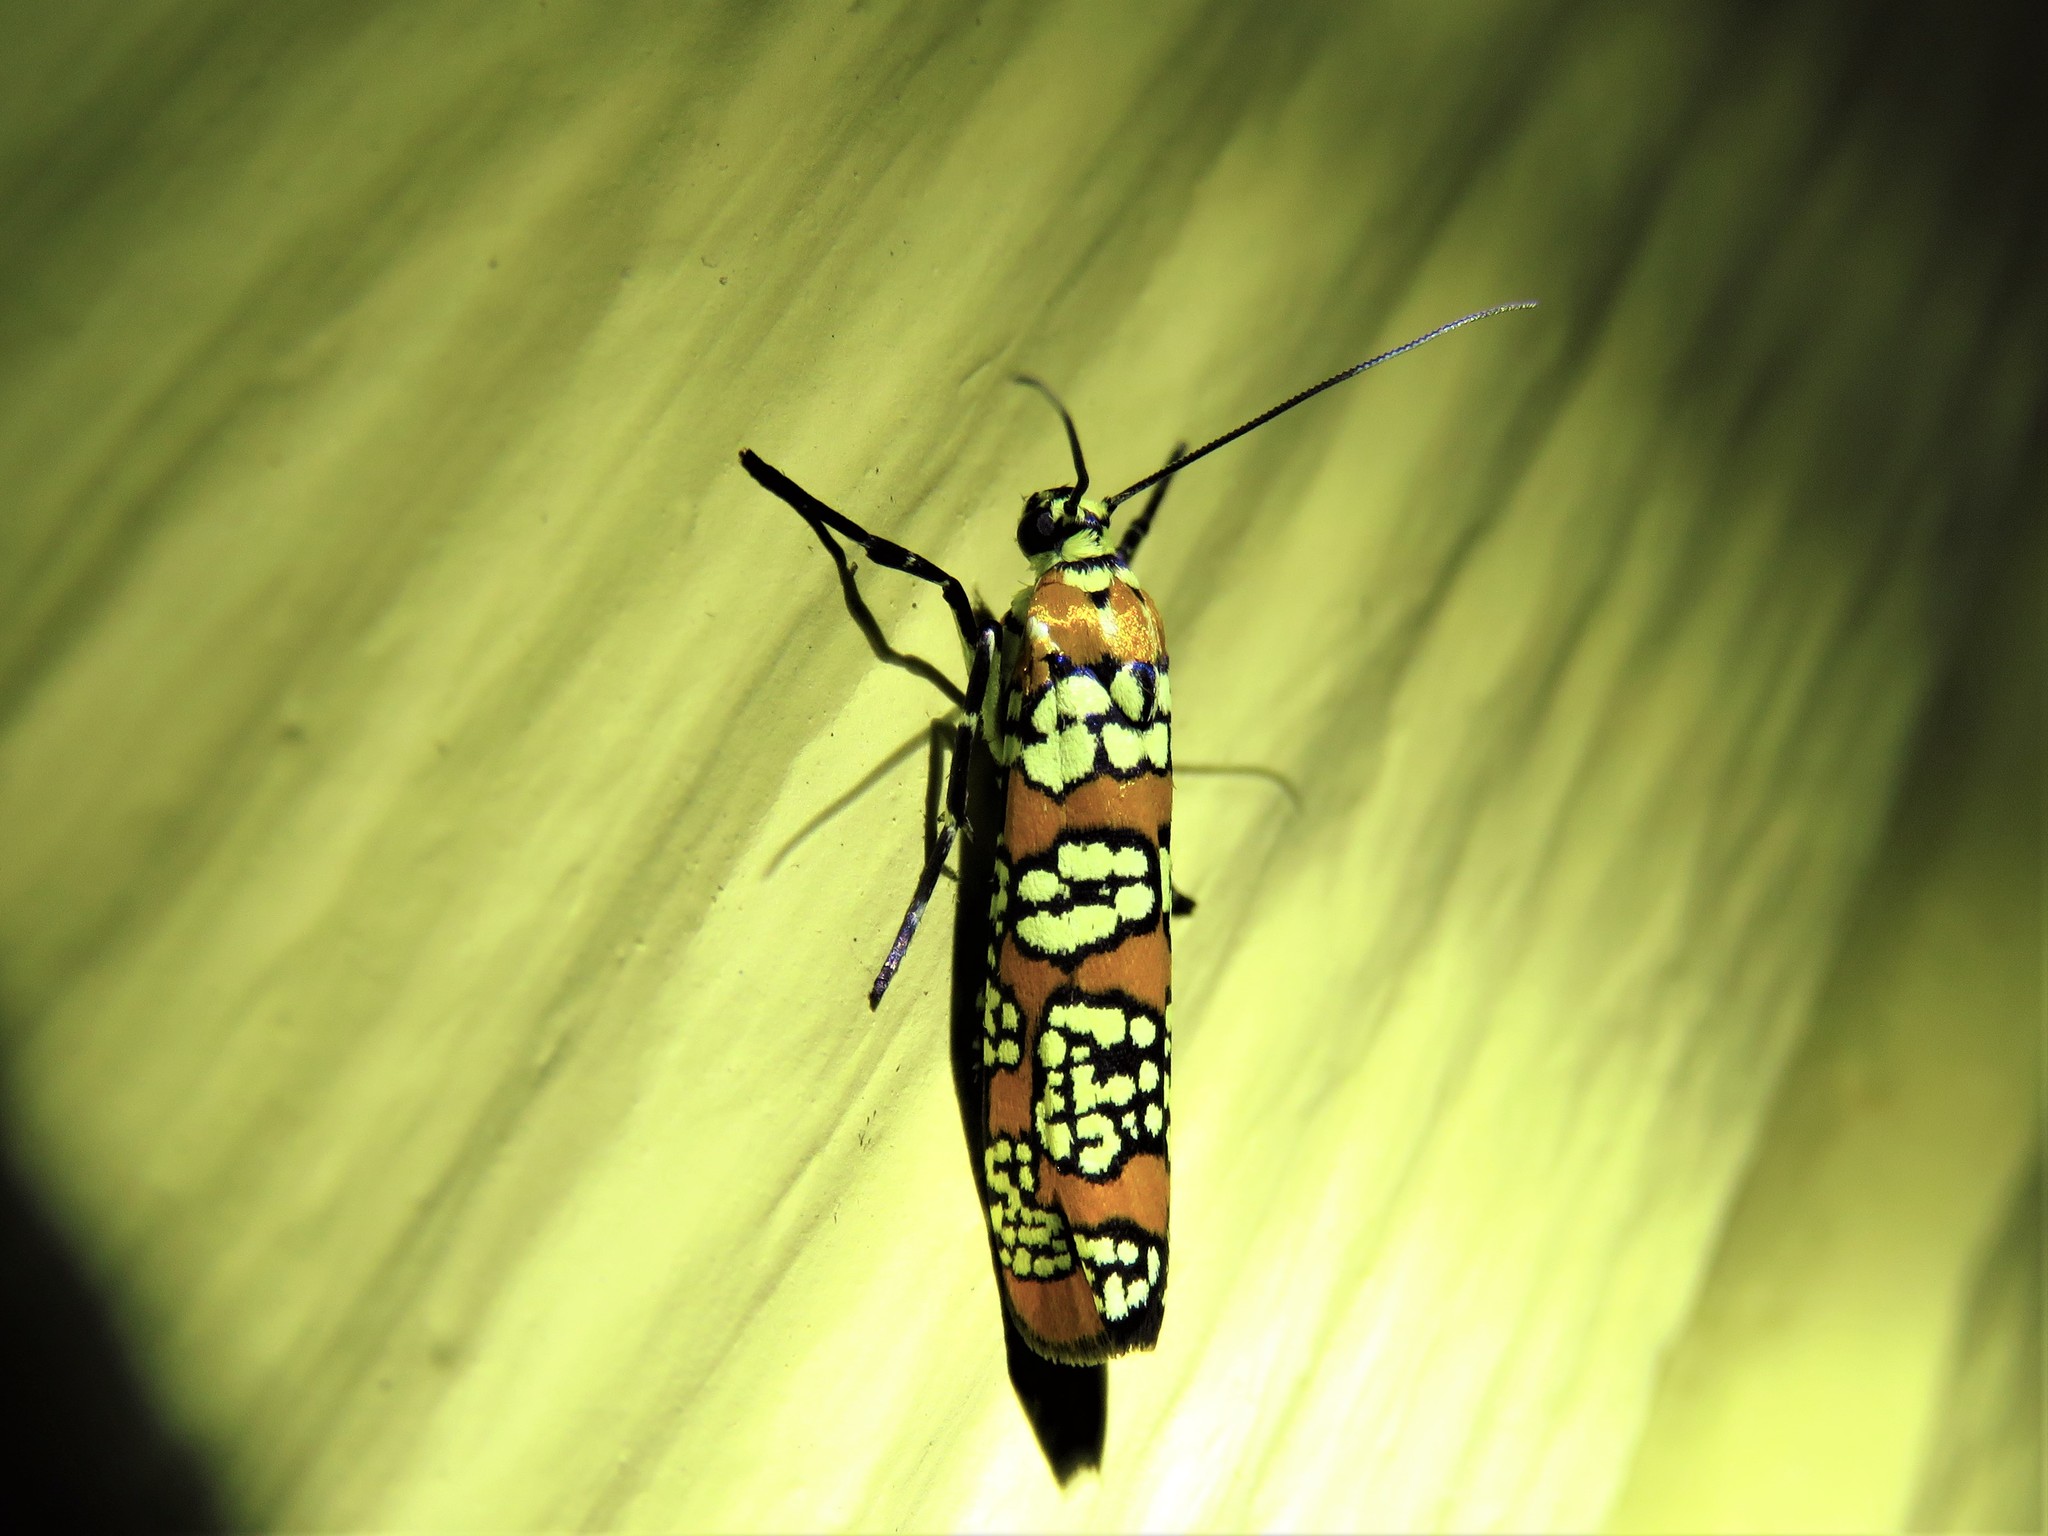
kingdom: Animalia
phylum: Arthropoda
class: Insecta
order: Lepidoptera
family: Attevidae
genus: Atteva
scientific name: Atteva punctella
